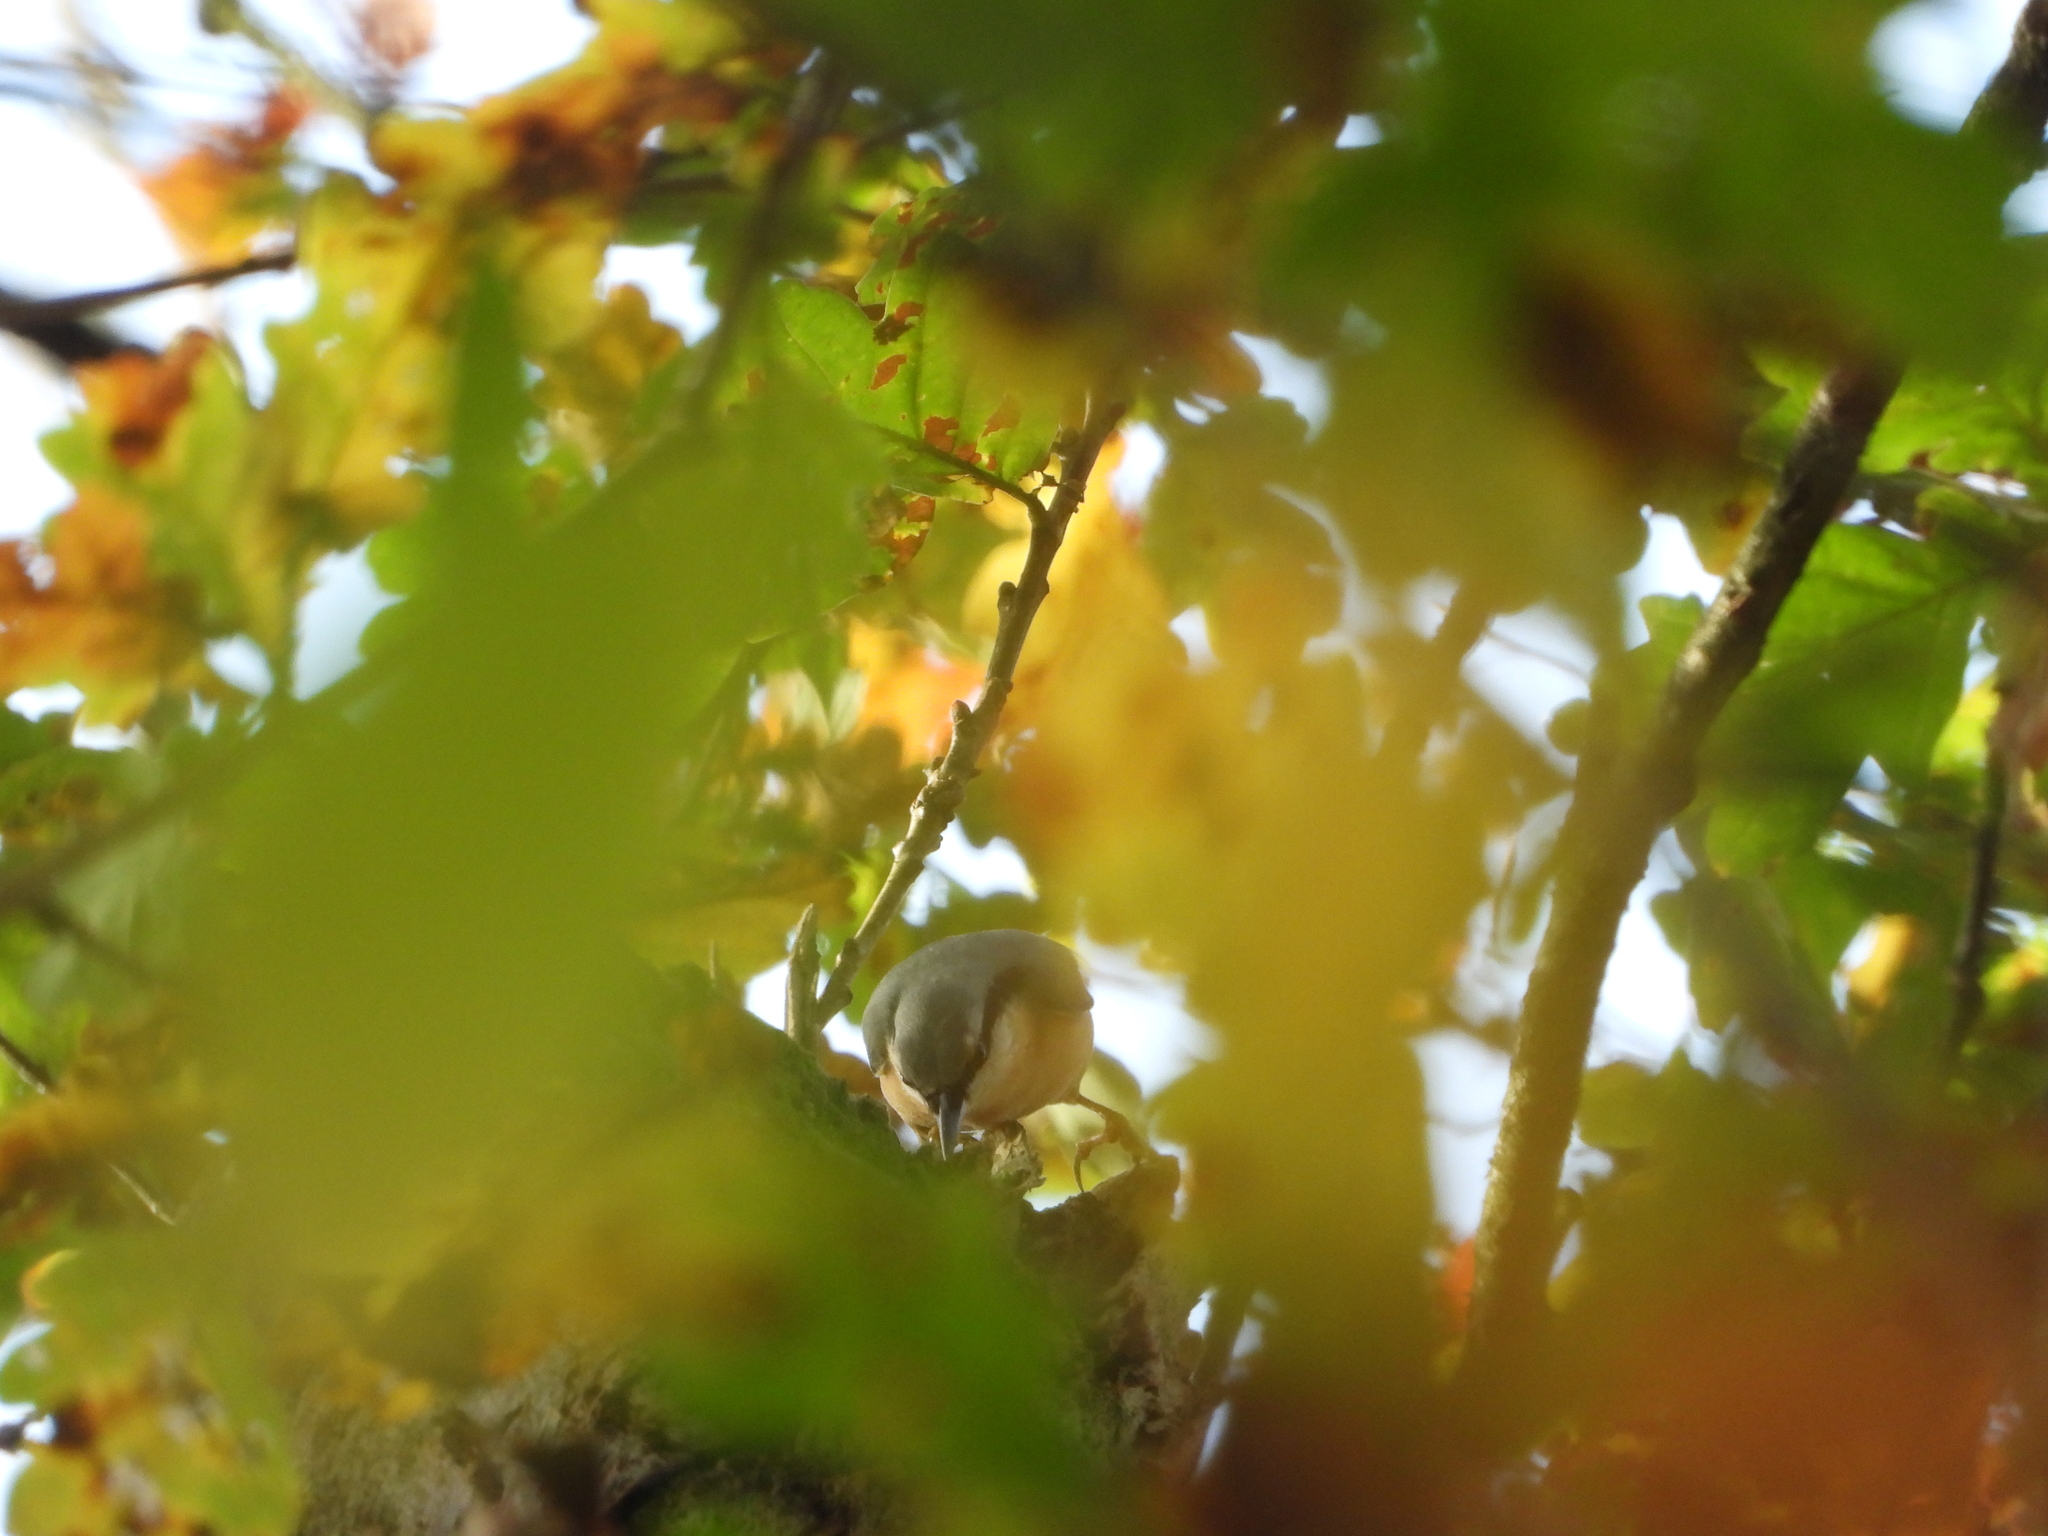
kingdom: Animalia
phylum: Chordata
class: Aves
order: Passeriformes
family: Sittidae
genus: Sitta
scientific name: Sitta europaea
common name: Eurasian nuthatch
